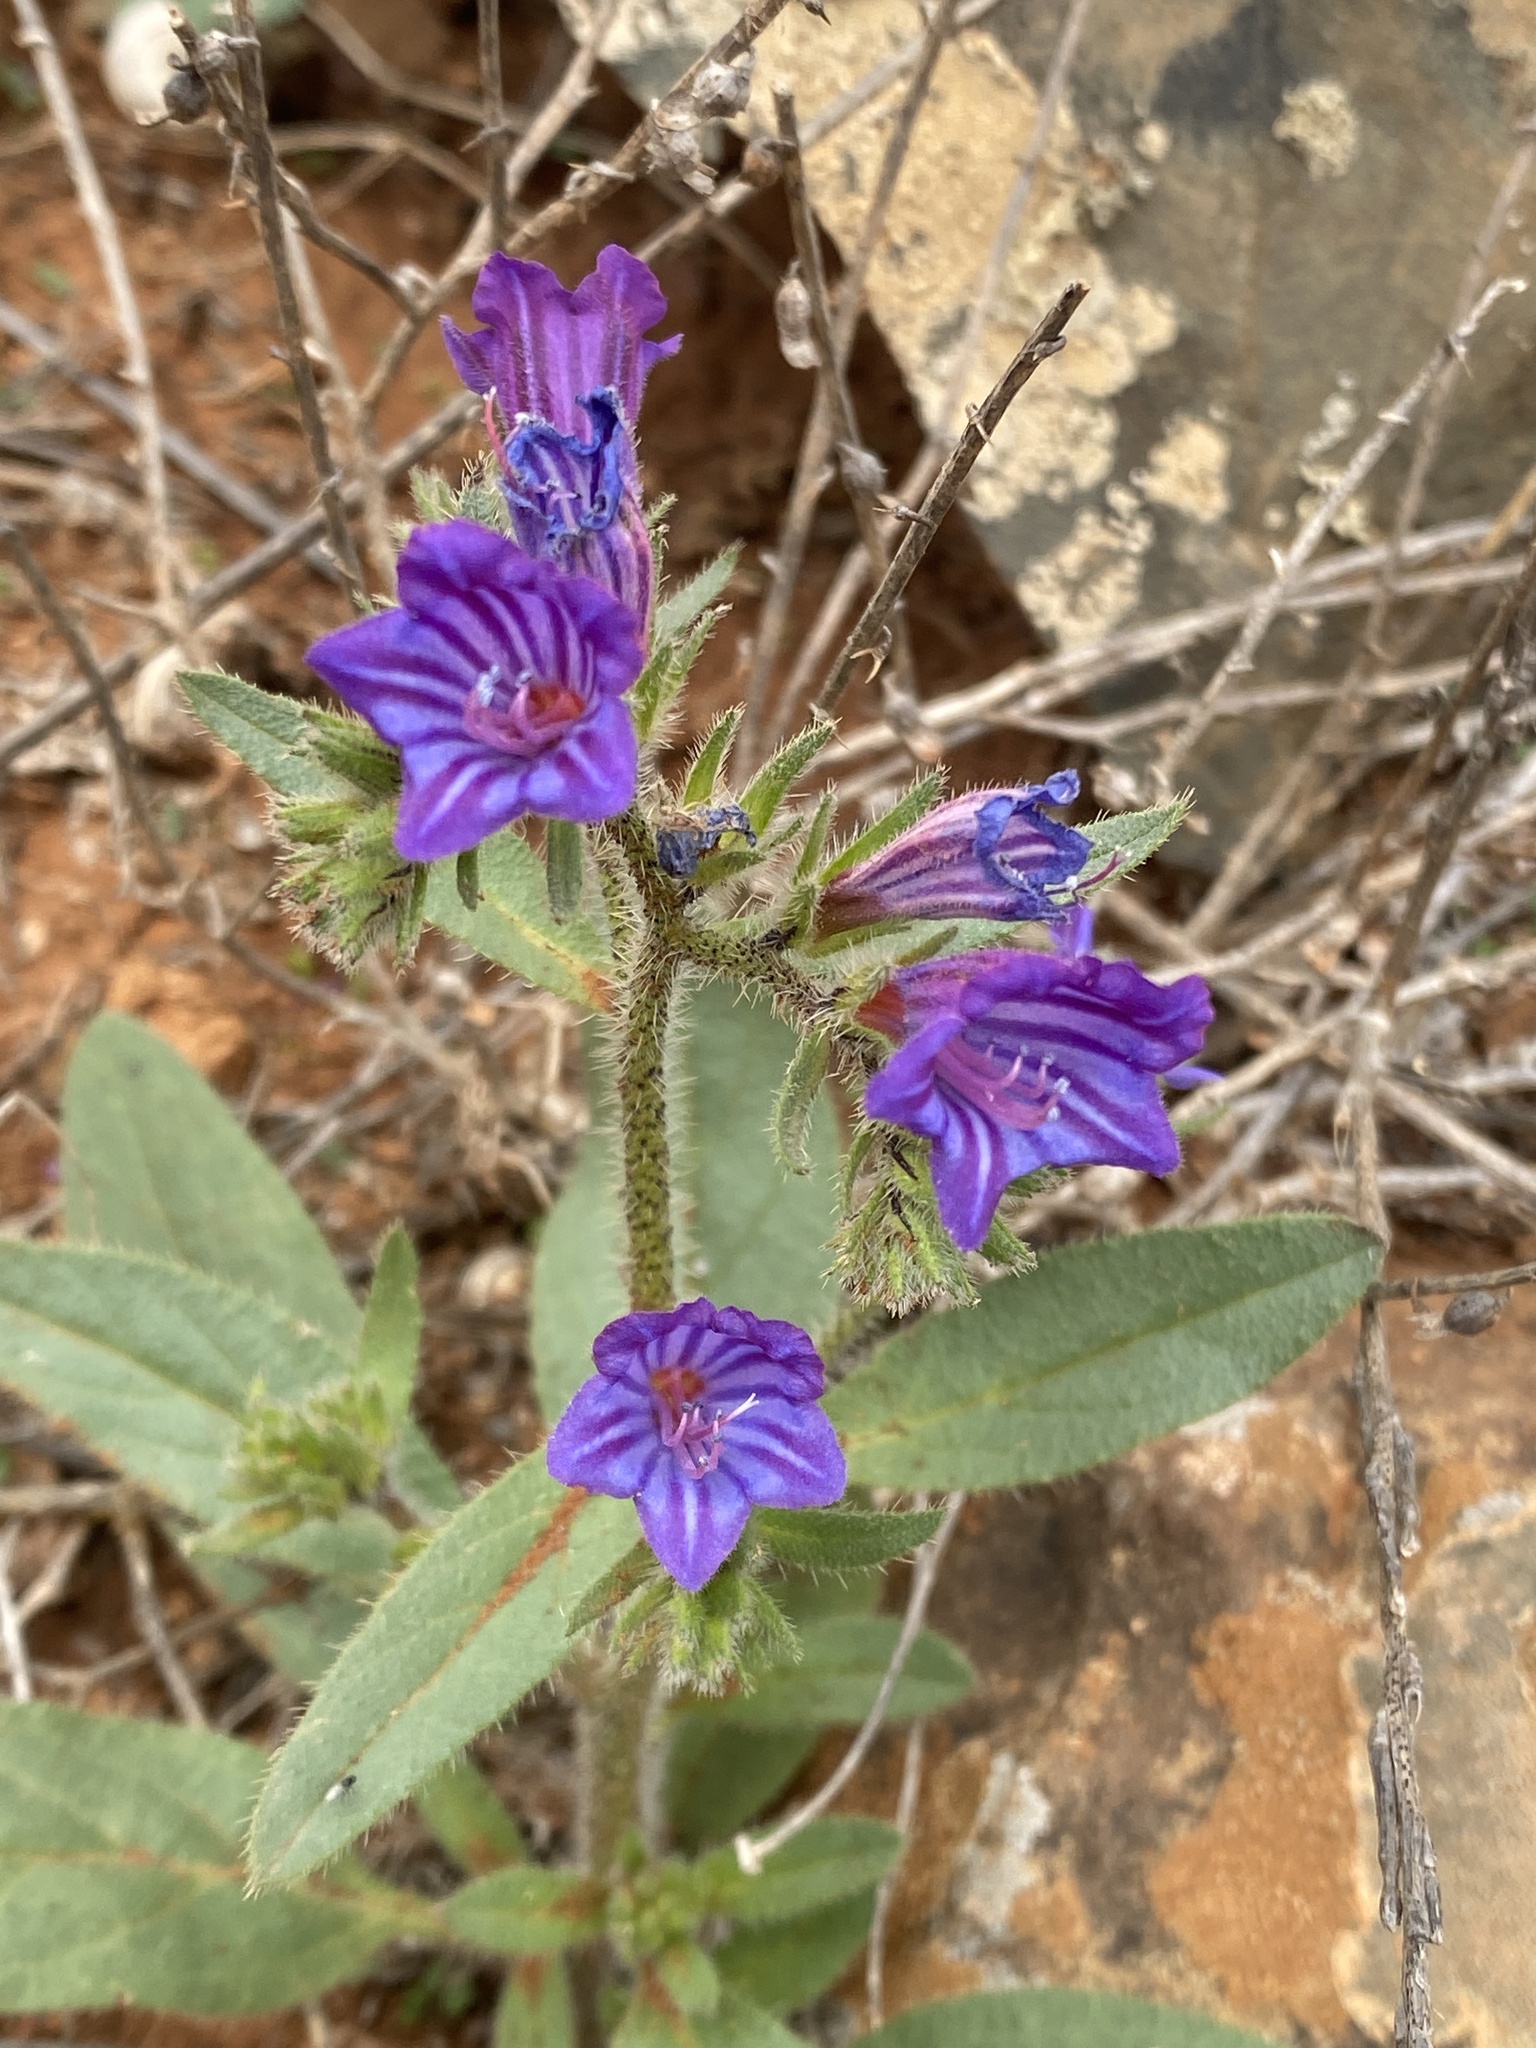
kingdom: Plantae
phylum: Tracheophyta
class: Magnoliopsida
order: Boraginales
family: Boraginaceae
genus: Echium
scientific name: Echium bonnetii
